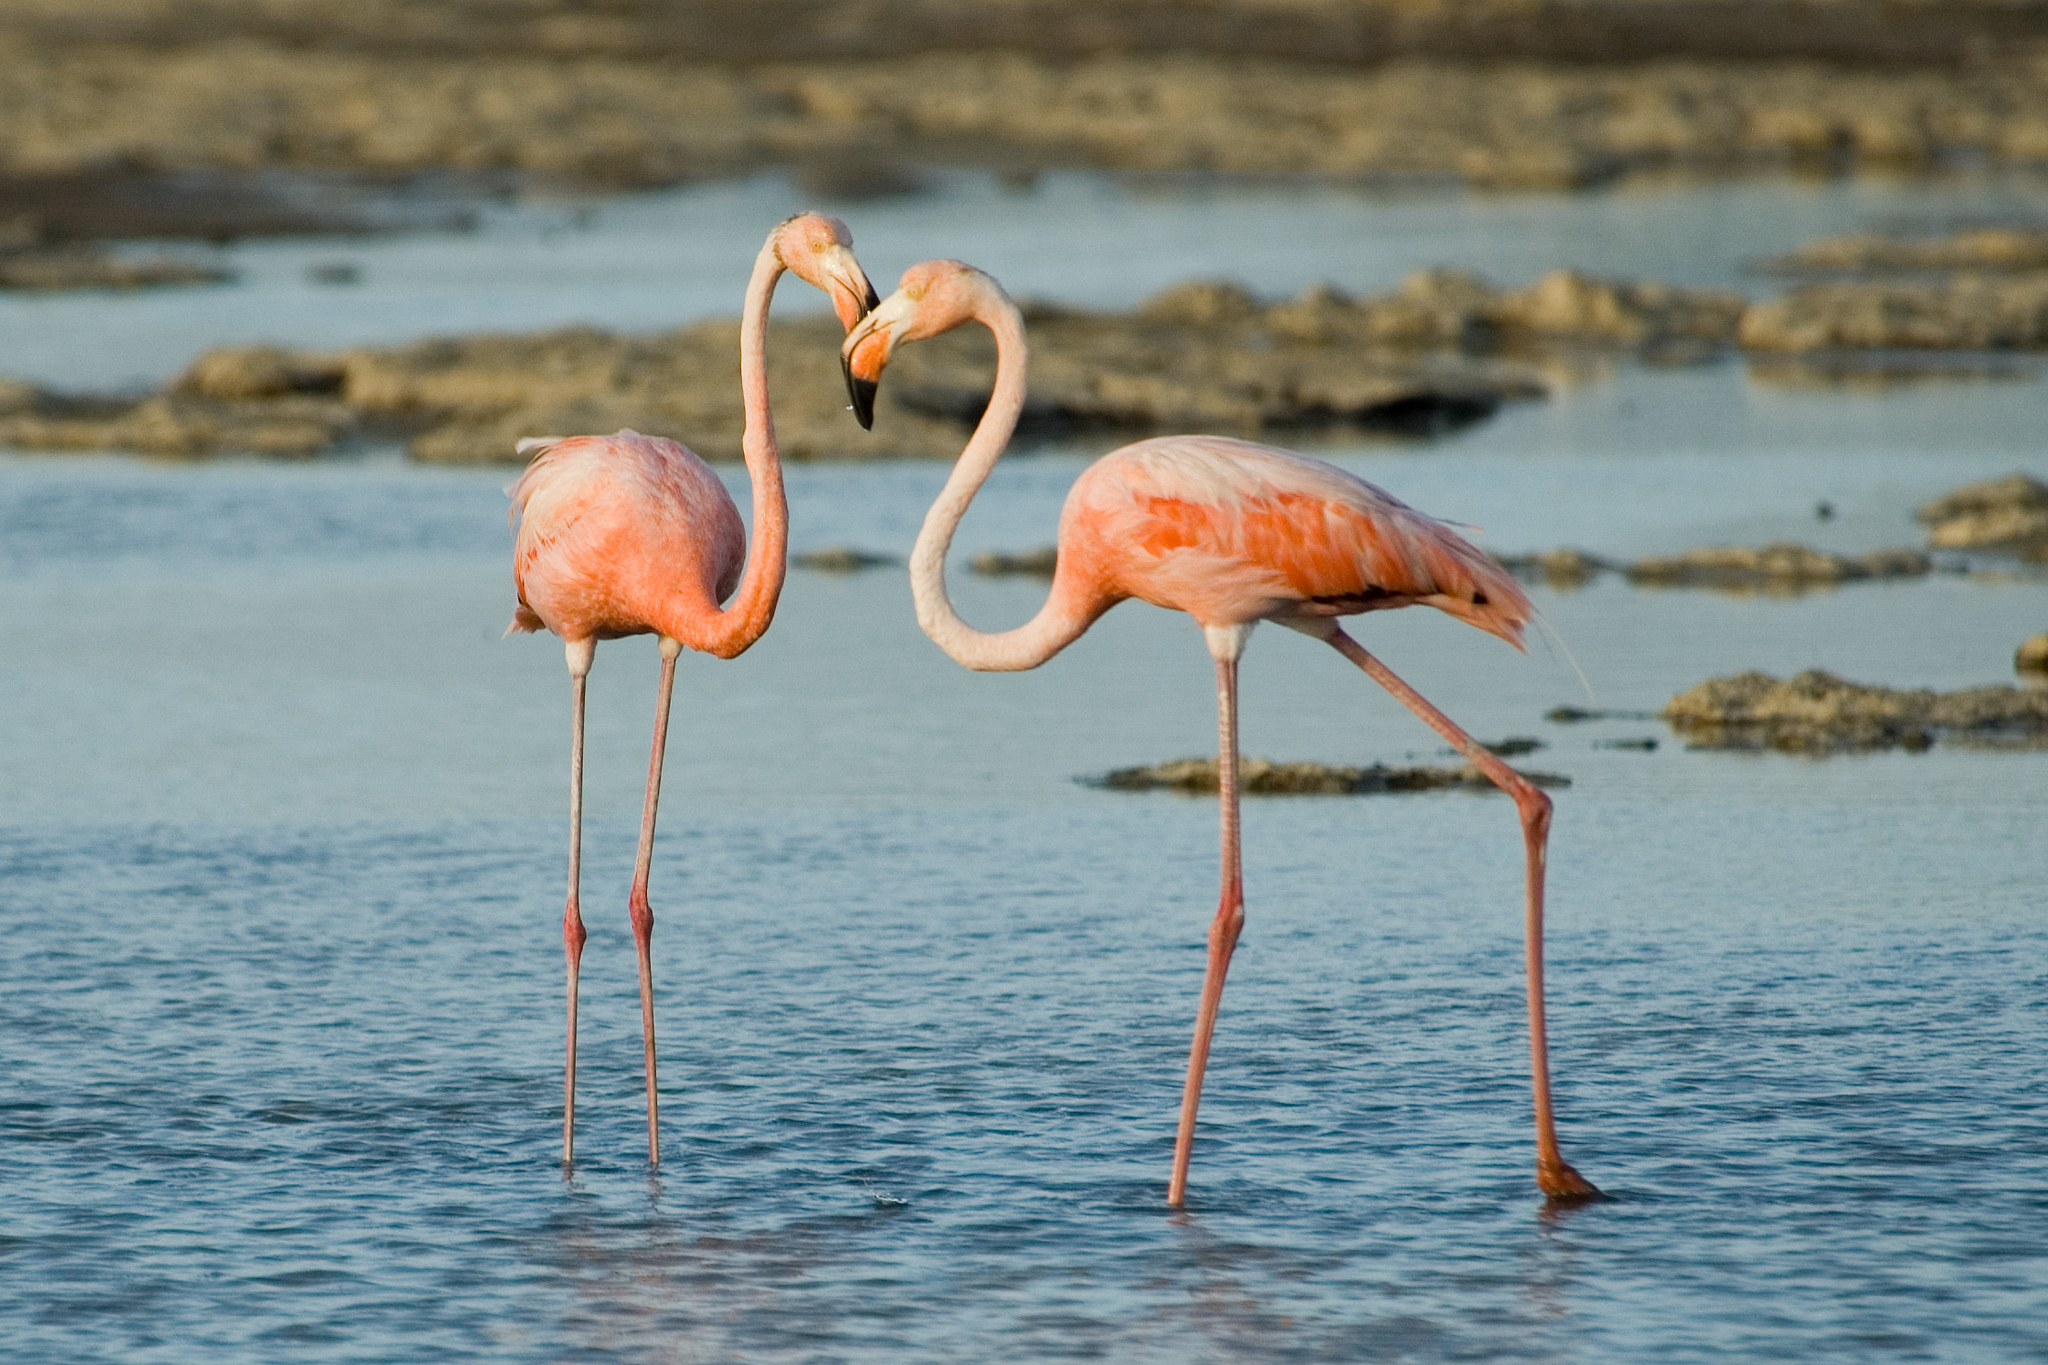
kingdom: Animalia
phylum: Chordata
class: Aves
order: Phoenicopteriformes
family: Phoenicopteridae
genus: Phoenicopterus
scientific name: Phoenicopterus ruber
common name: American flamingo
